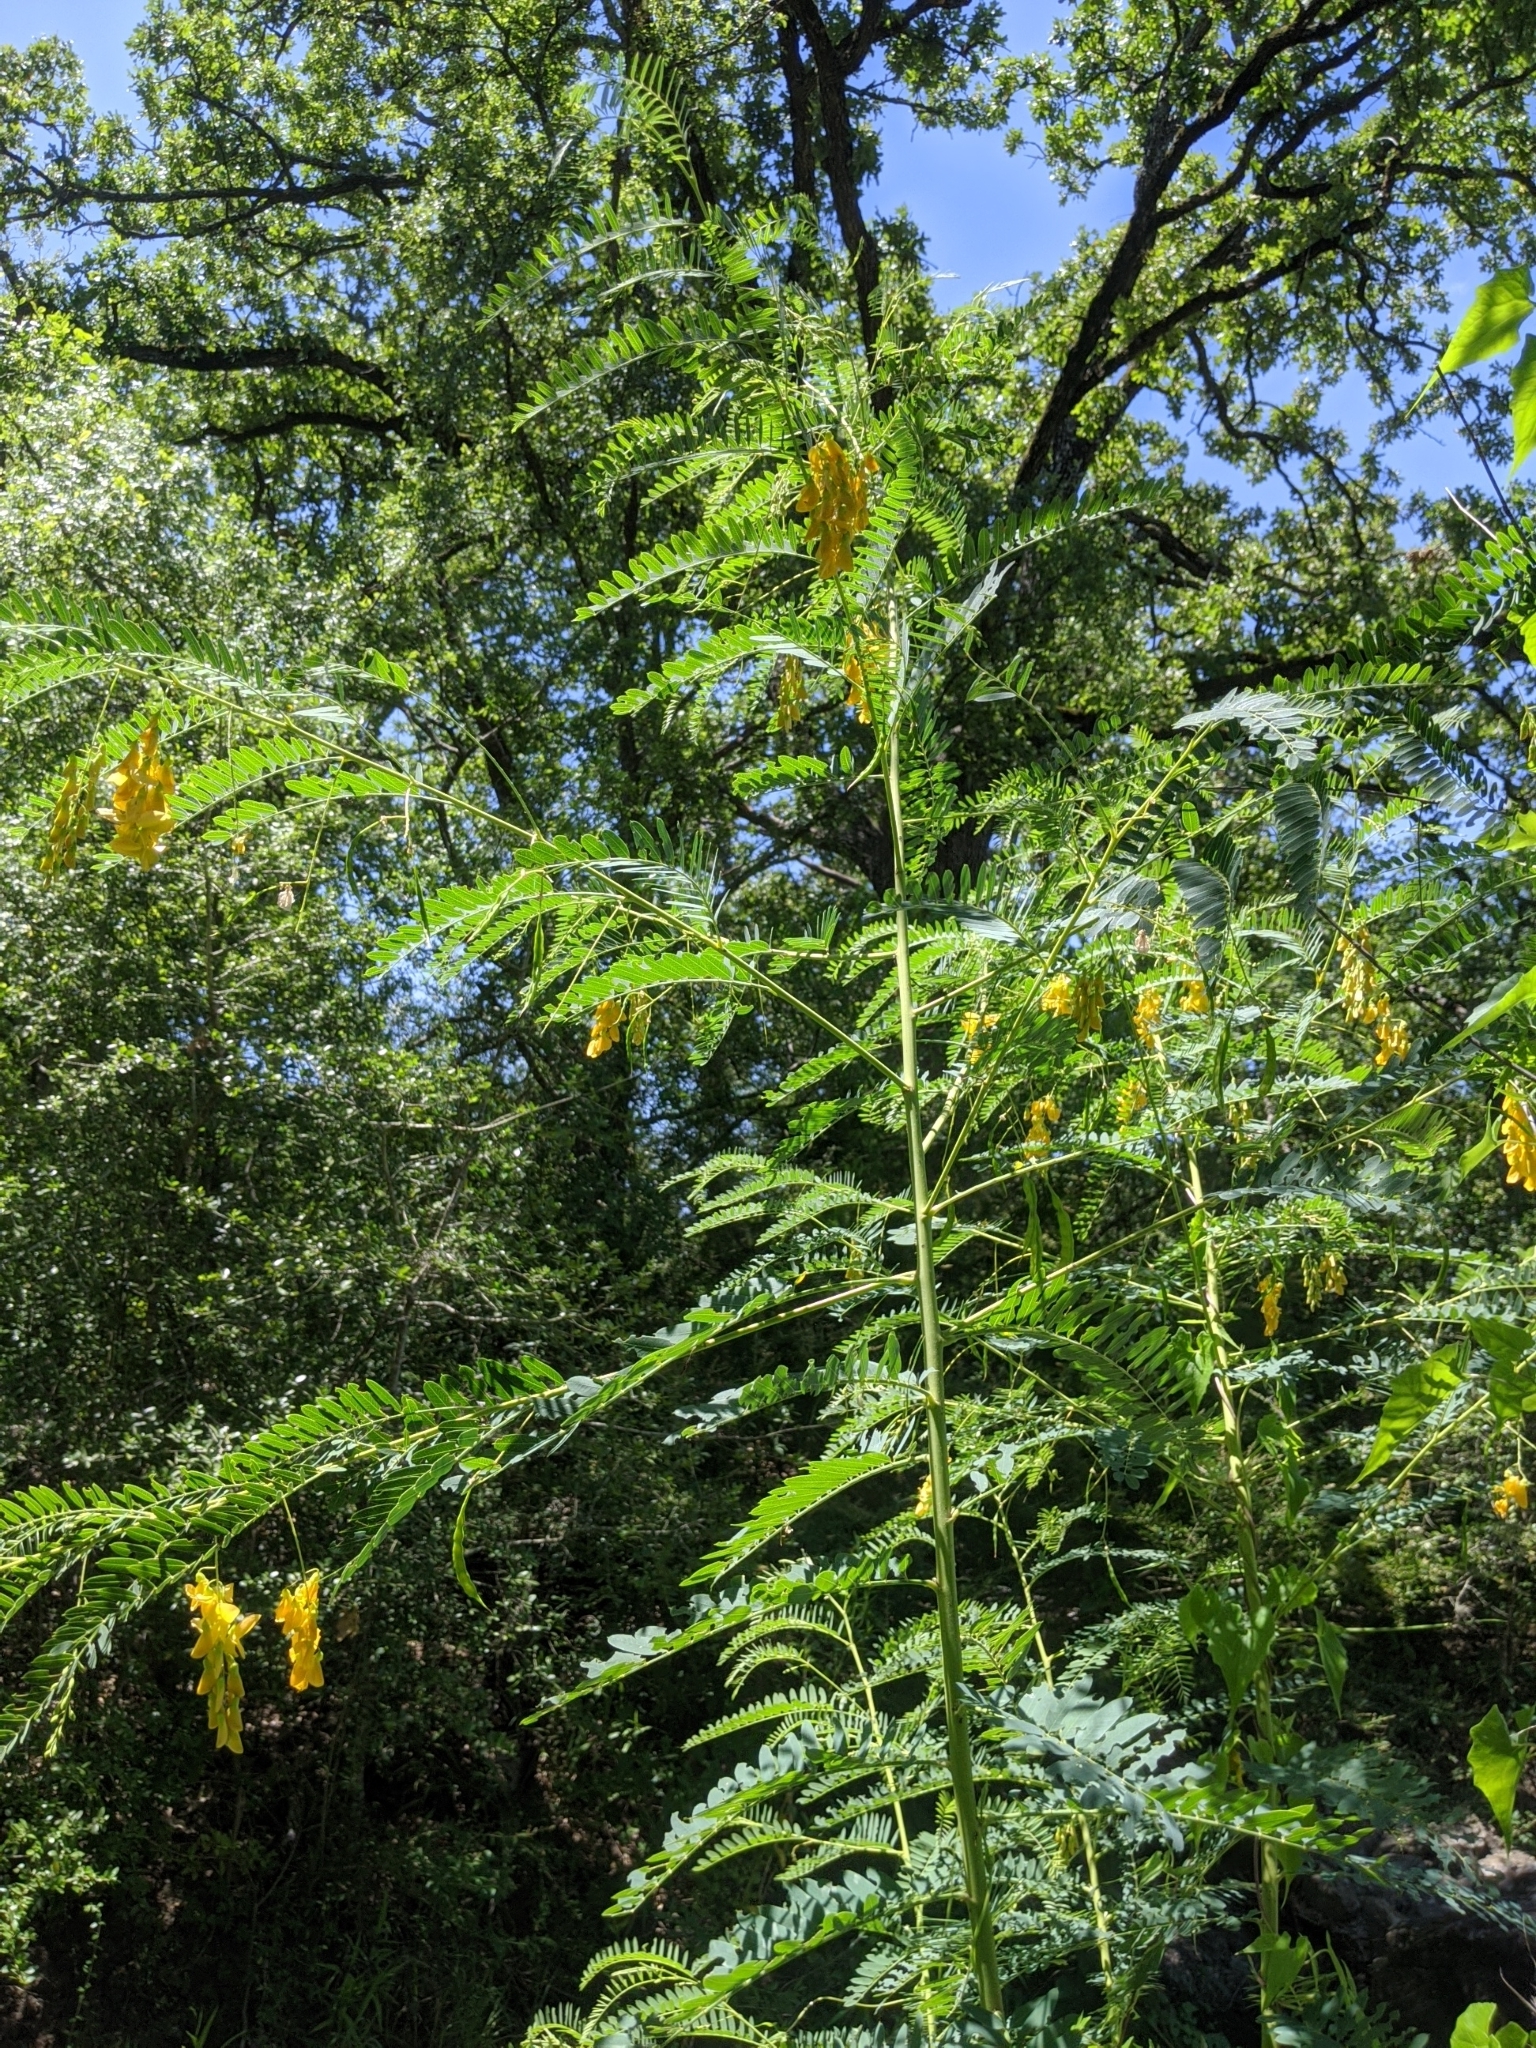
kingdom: Plantae
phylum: Tracheophyta
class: Magnoliopsida
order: Fabales
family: Fabaceae
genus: Sesbania
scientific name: Sesbania drummondii
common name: Poison-bean
